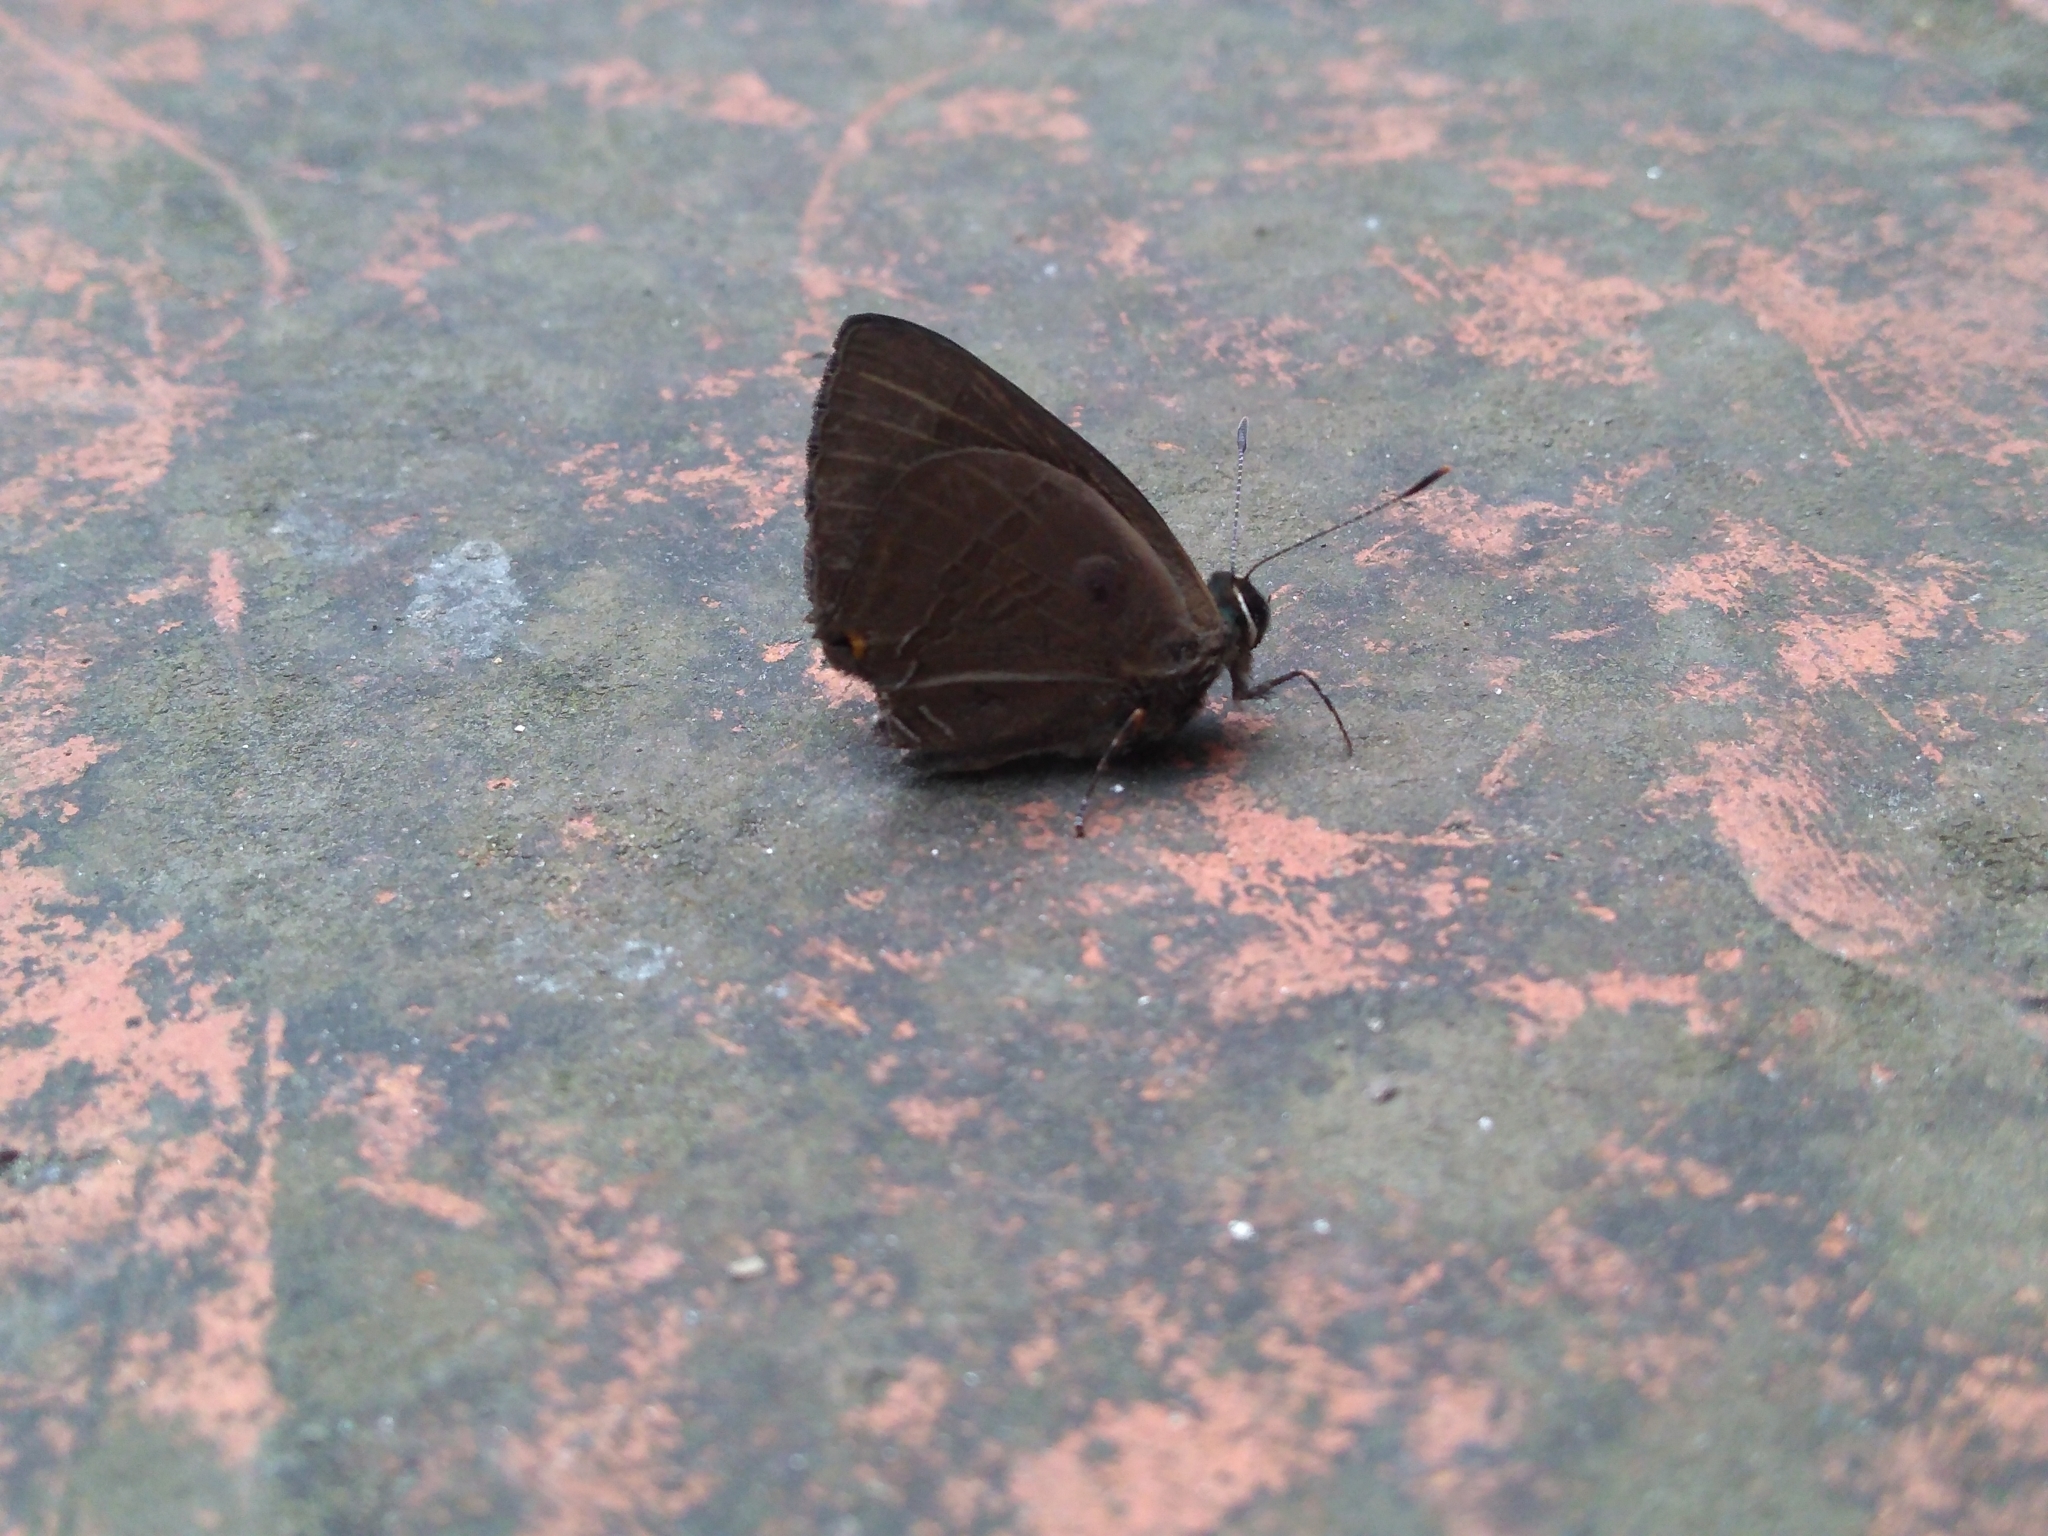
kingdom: Animalia
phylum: Arthropoda
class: Insecta
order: Lepidoptera
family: Lycaenidae
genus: Rapala
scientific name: Rapala manea
